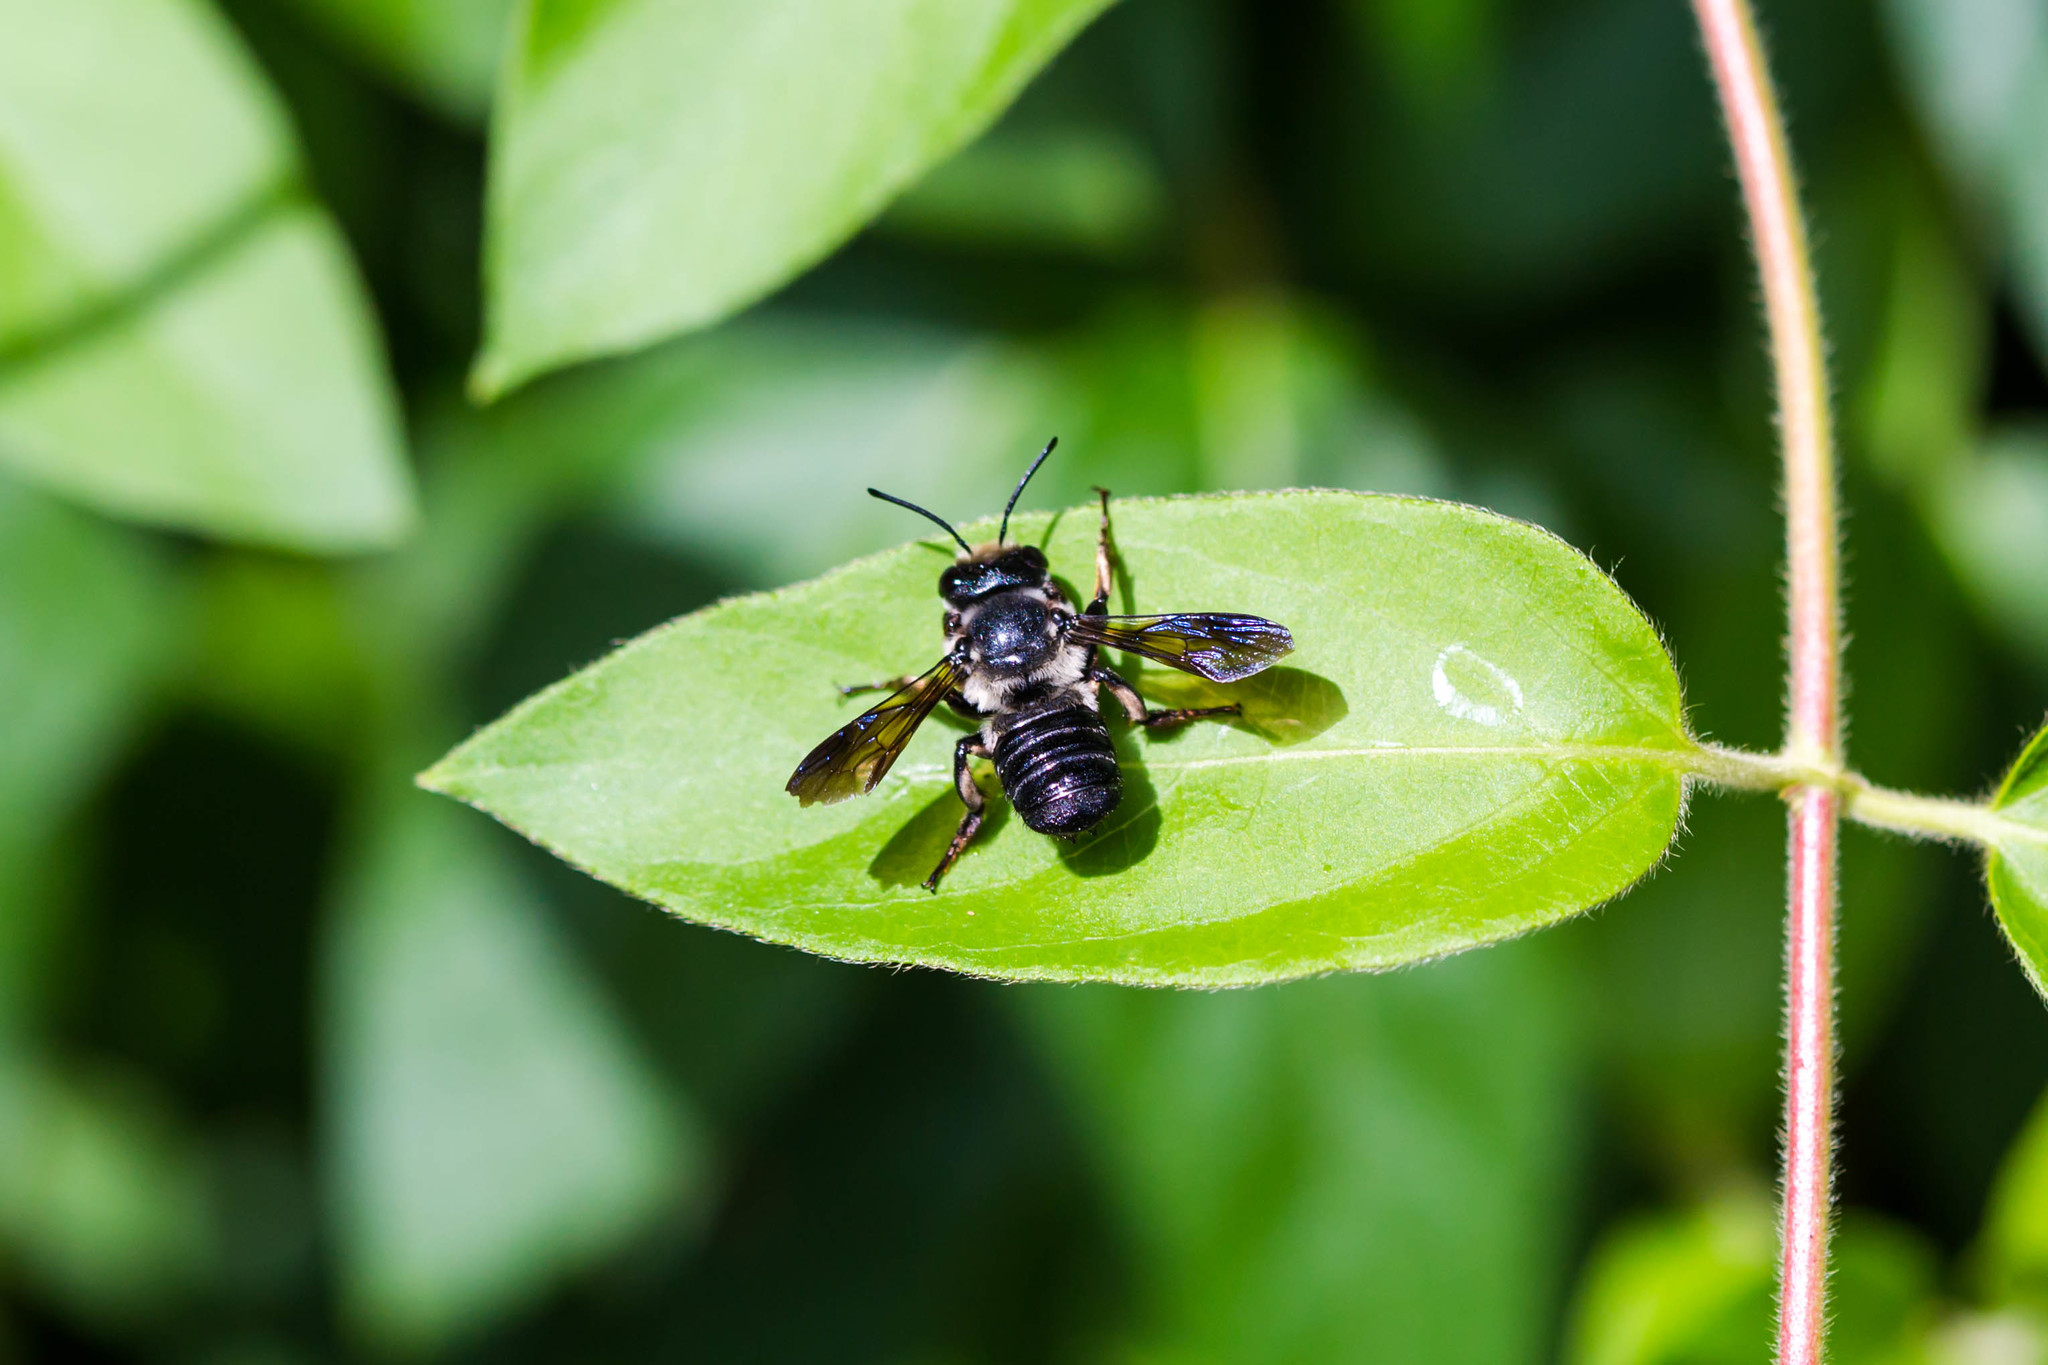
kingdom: Animalia
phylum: Arthropoda
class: Insecta
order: Hymenoptera
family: Megachilidae
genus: Megachile
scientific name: Megachile xylocopoides
